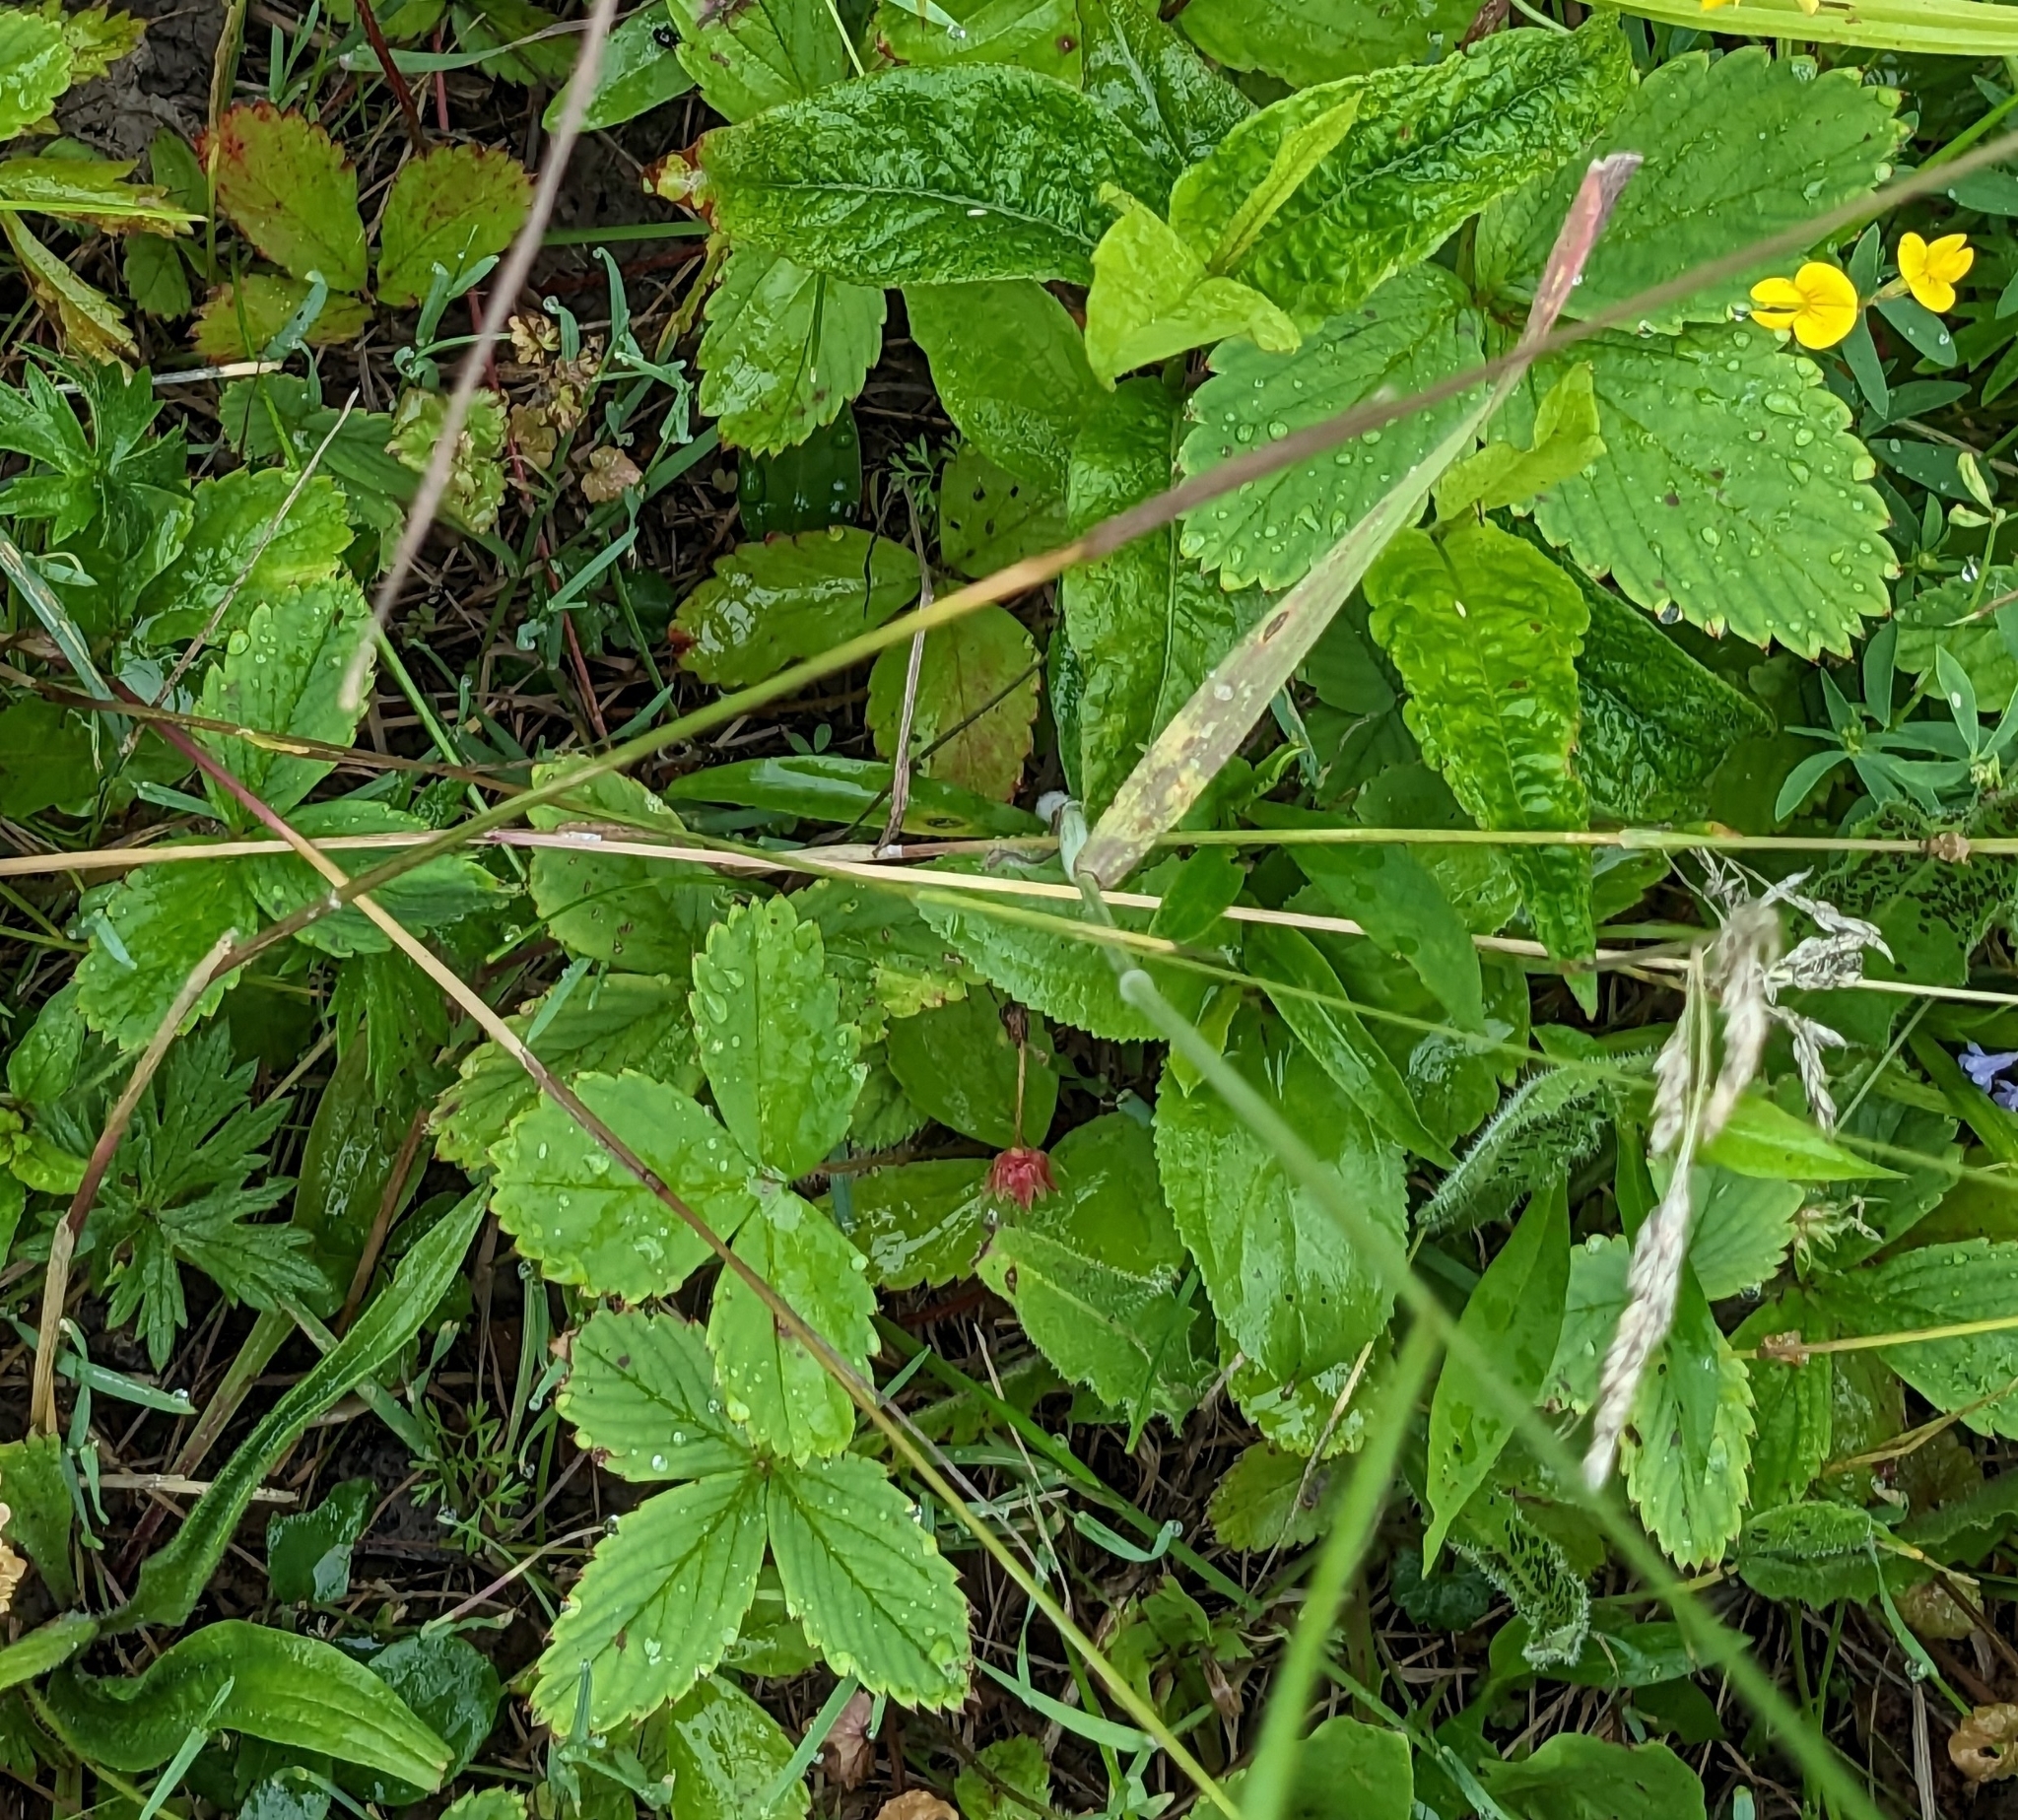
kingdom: Plantae
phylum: Tracheophyta
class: Magnoliopsida
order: Rosales
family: Rosaceae
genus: Fragaria
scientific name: Fragaria virginiana
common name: Thickleaved wild strawberry
